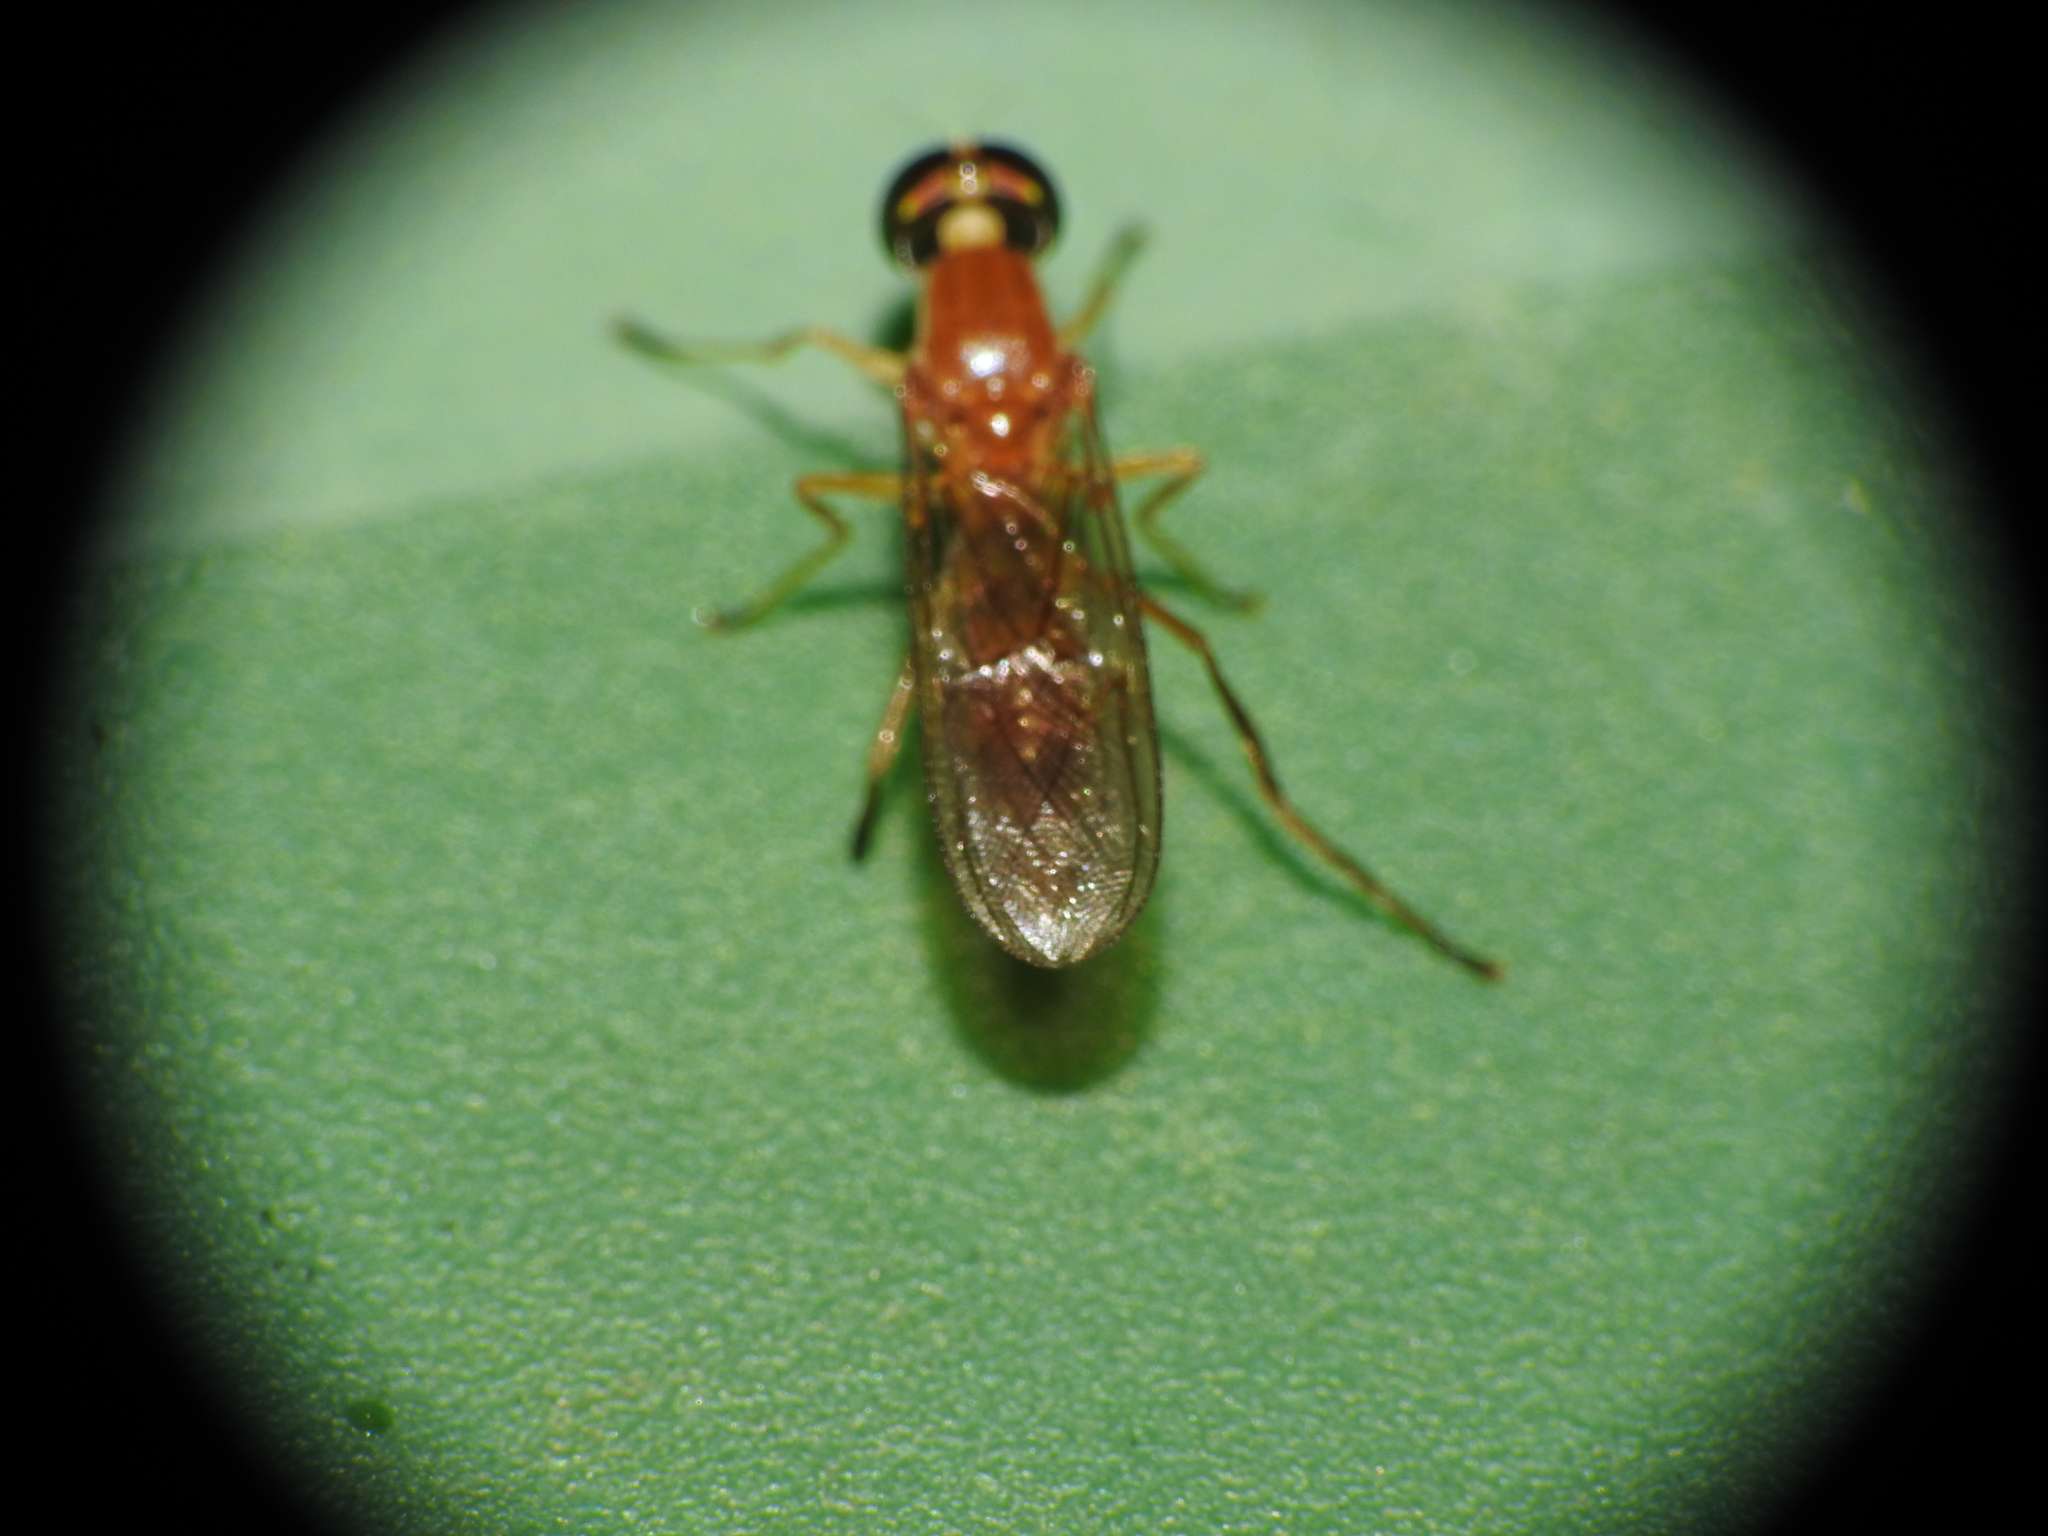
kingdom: Animalia
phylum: Arthropoda
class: Insecta
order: Diptera
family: Stratiomyidae
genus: Ptecticus
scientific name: Ptecticus trivittatus
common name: Compost fly
